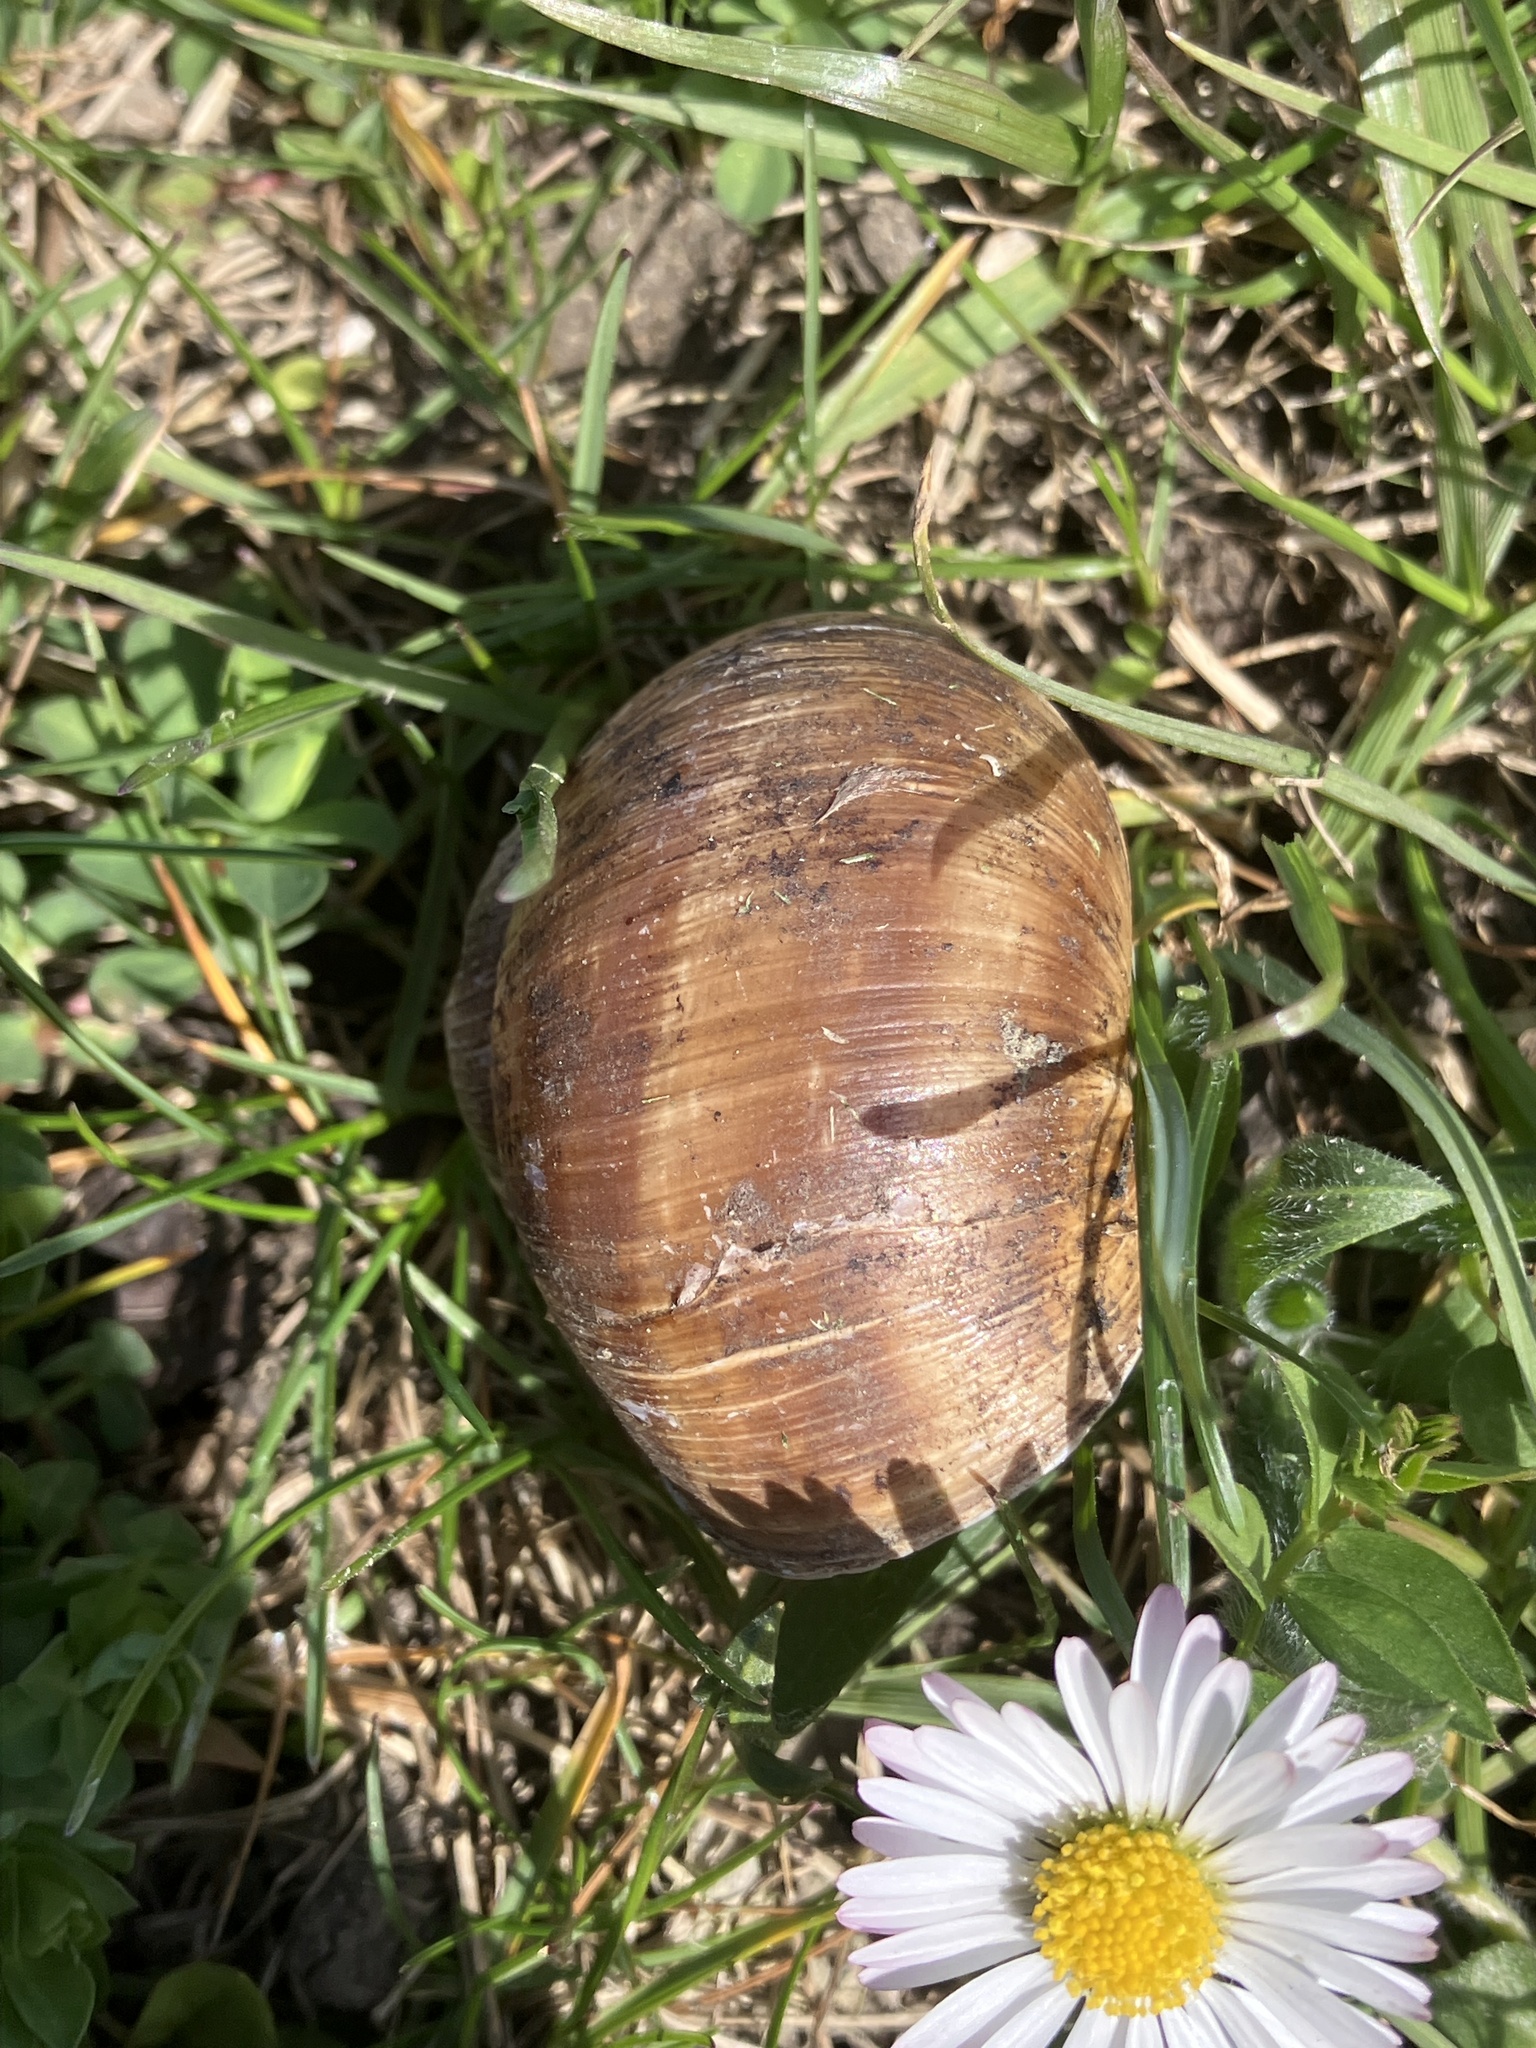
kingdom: Animalia
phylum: Mollusca
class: Gastropoda
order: Stylommatophora
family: Helicidae
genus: Helix
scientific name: Helix pomatia
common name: Roman snail
